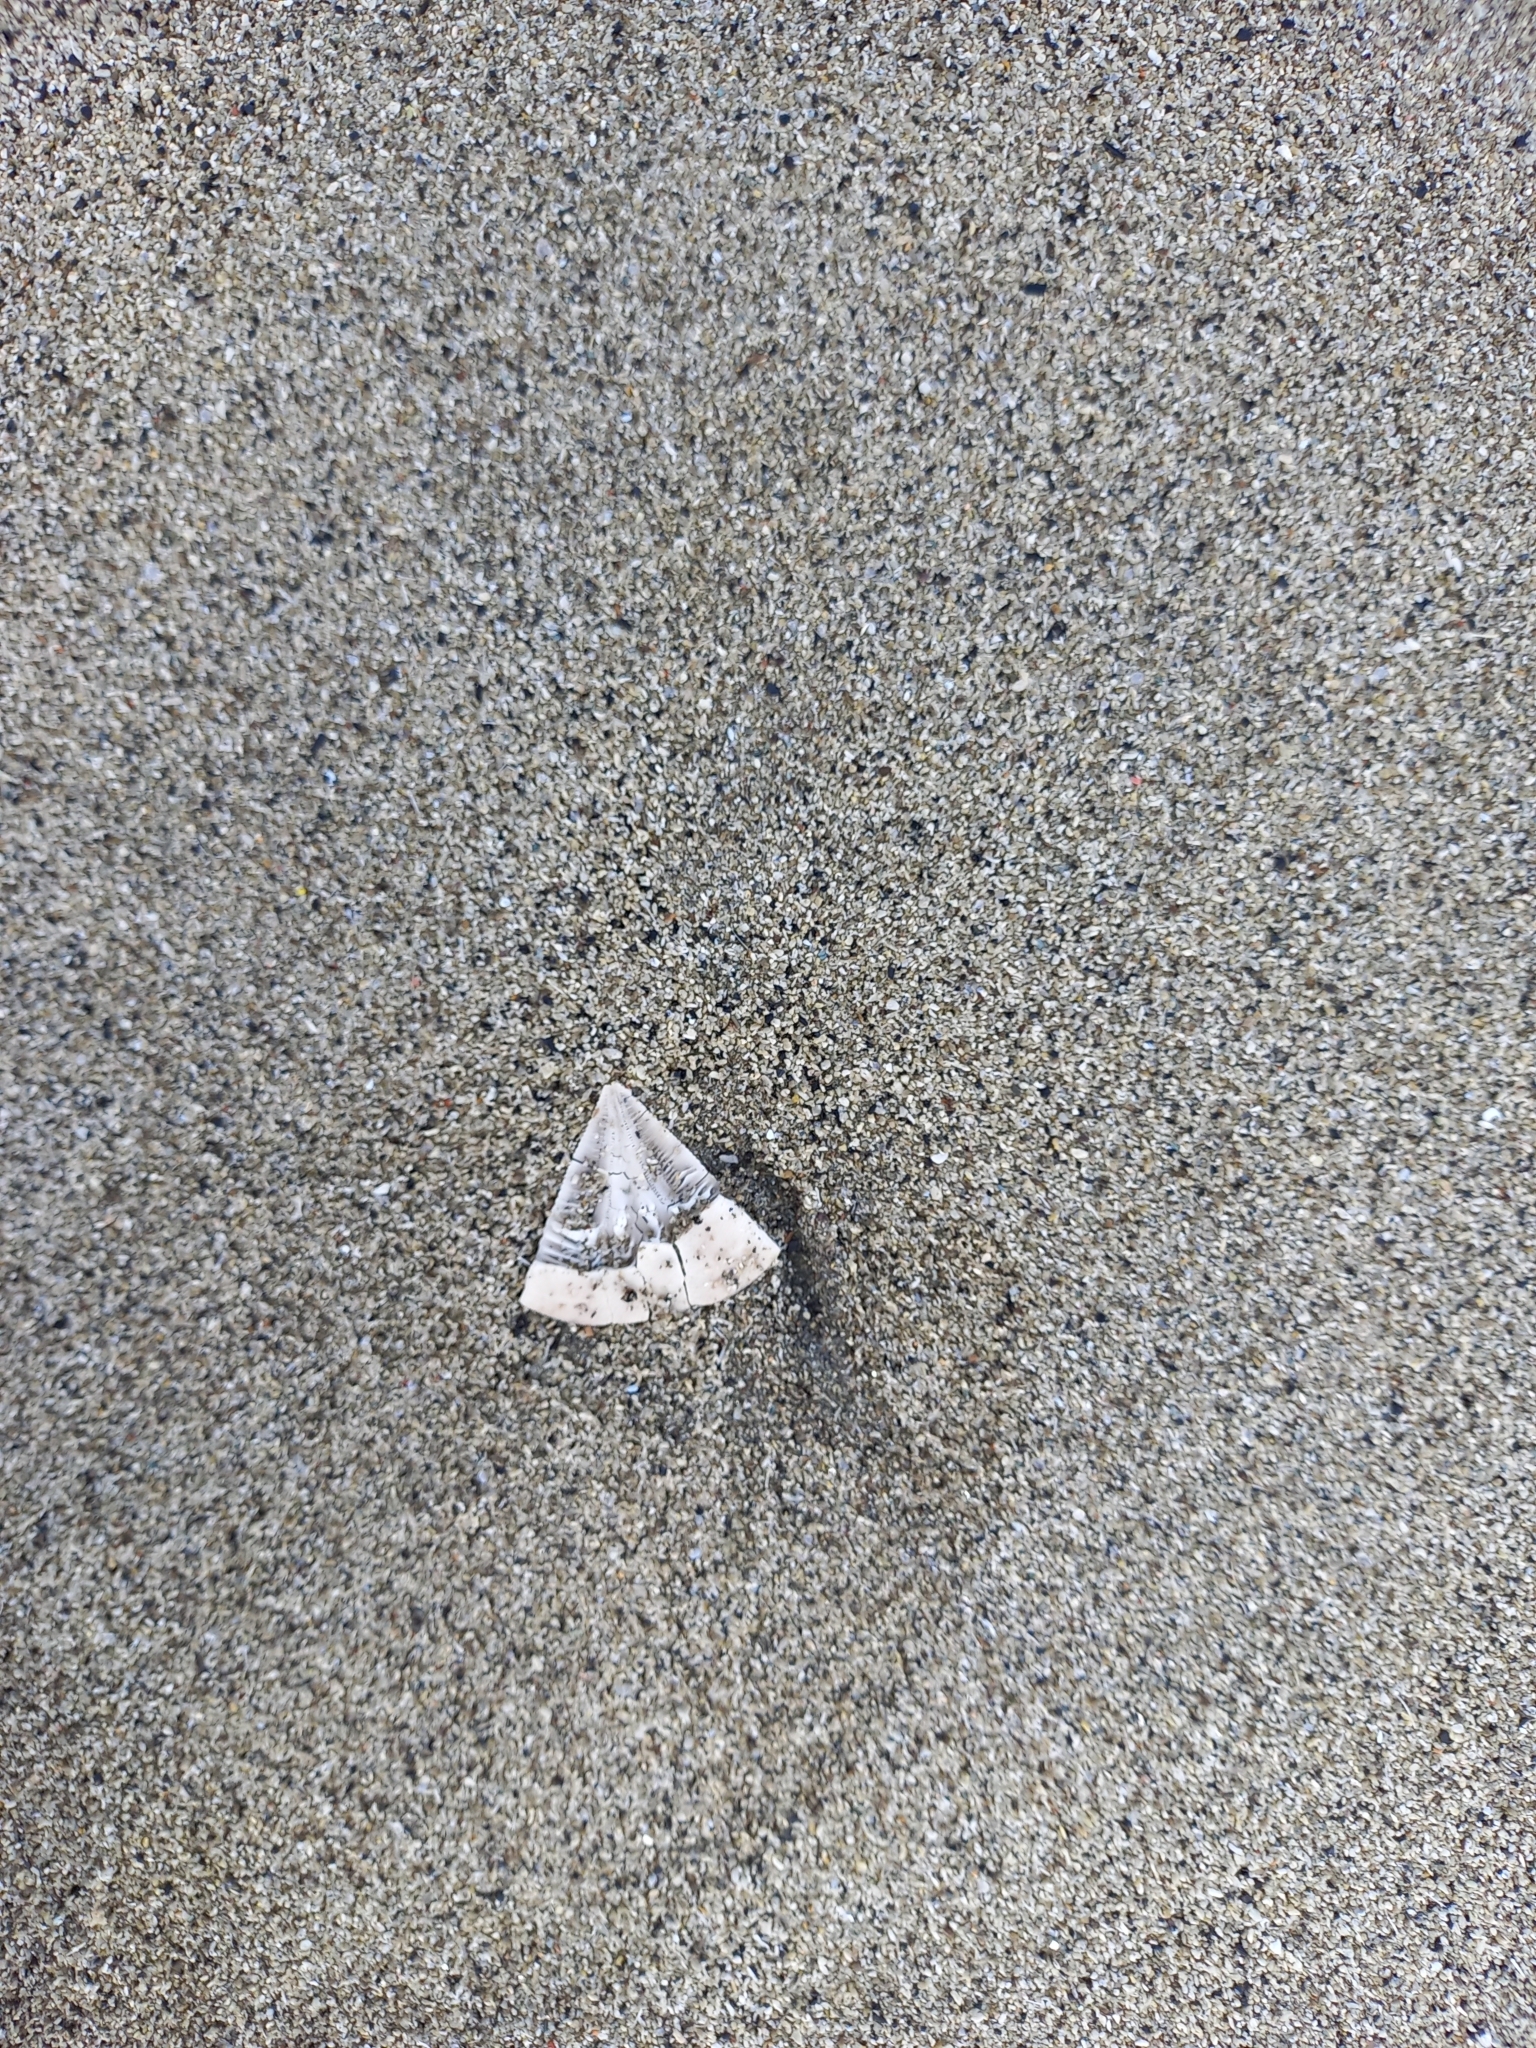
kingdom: Animalia
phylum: Echinodermata
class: Echinoidea
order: Clypeasteroida
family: Clypeasteridae
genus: Fellaster
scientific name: Fellaster zelandiae
